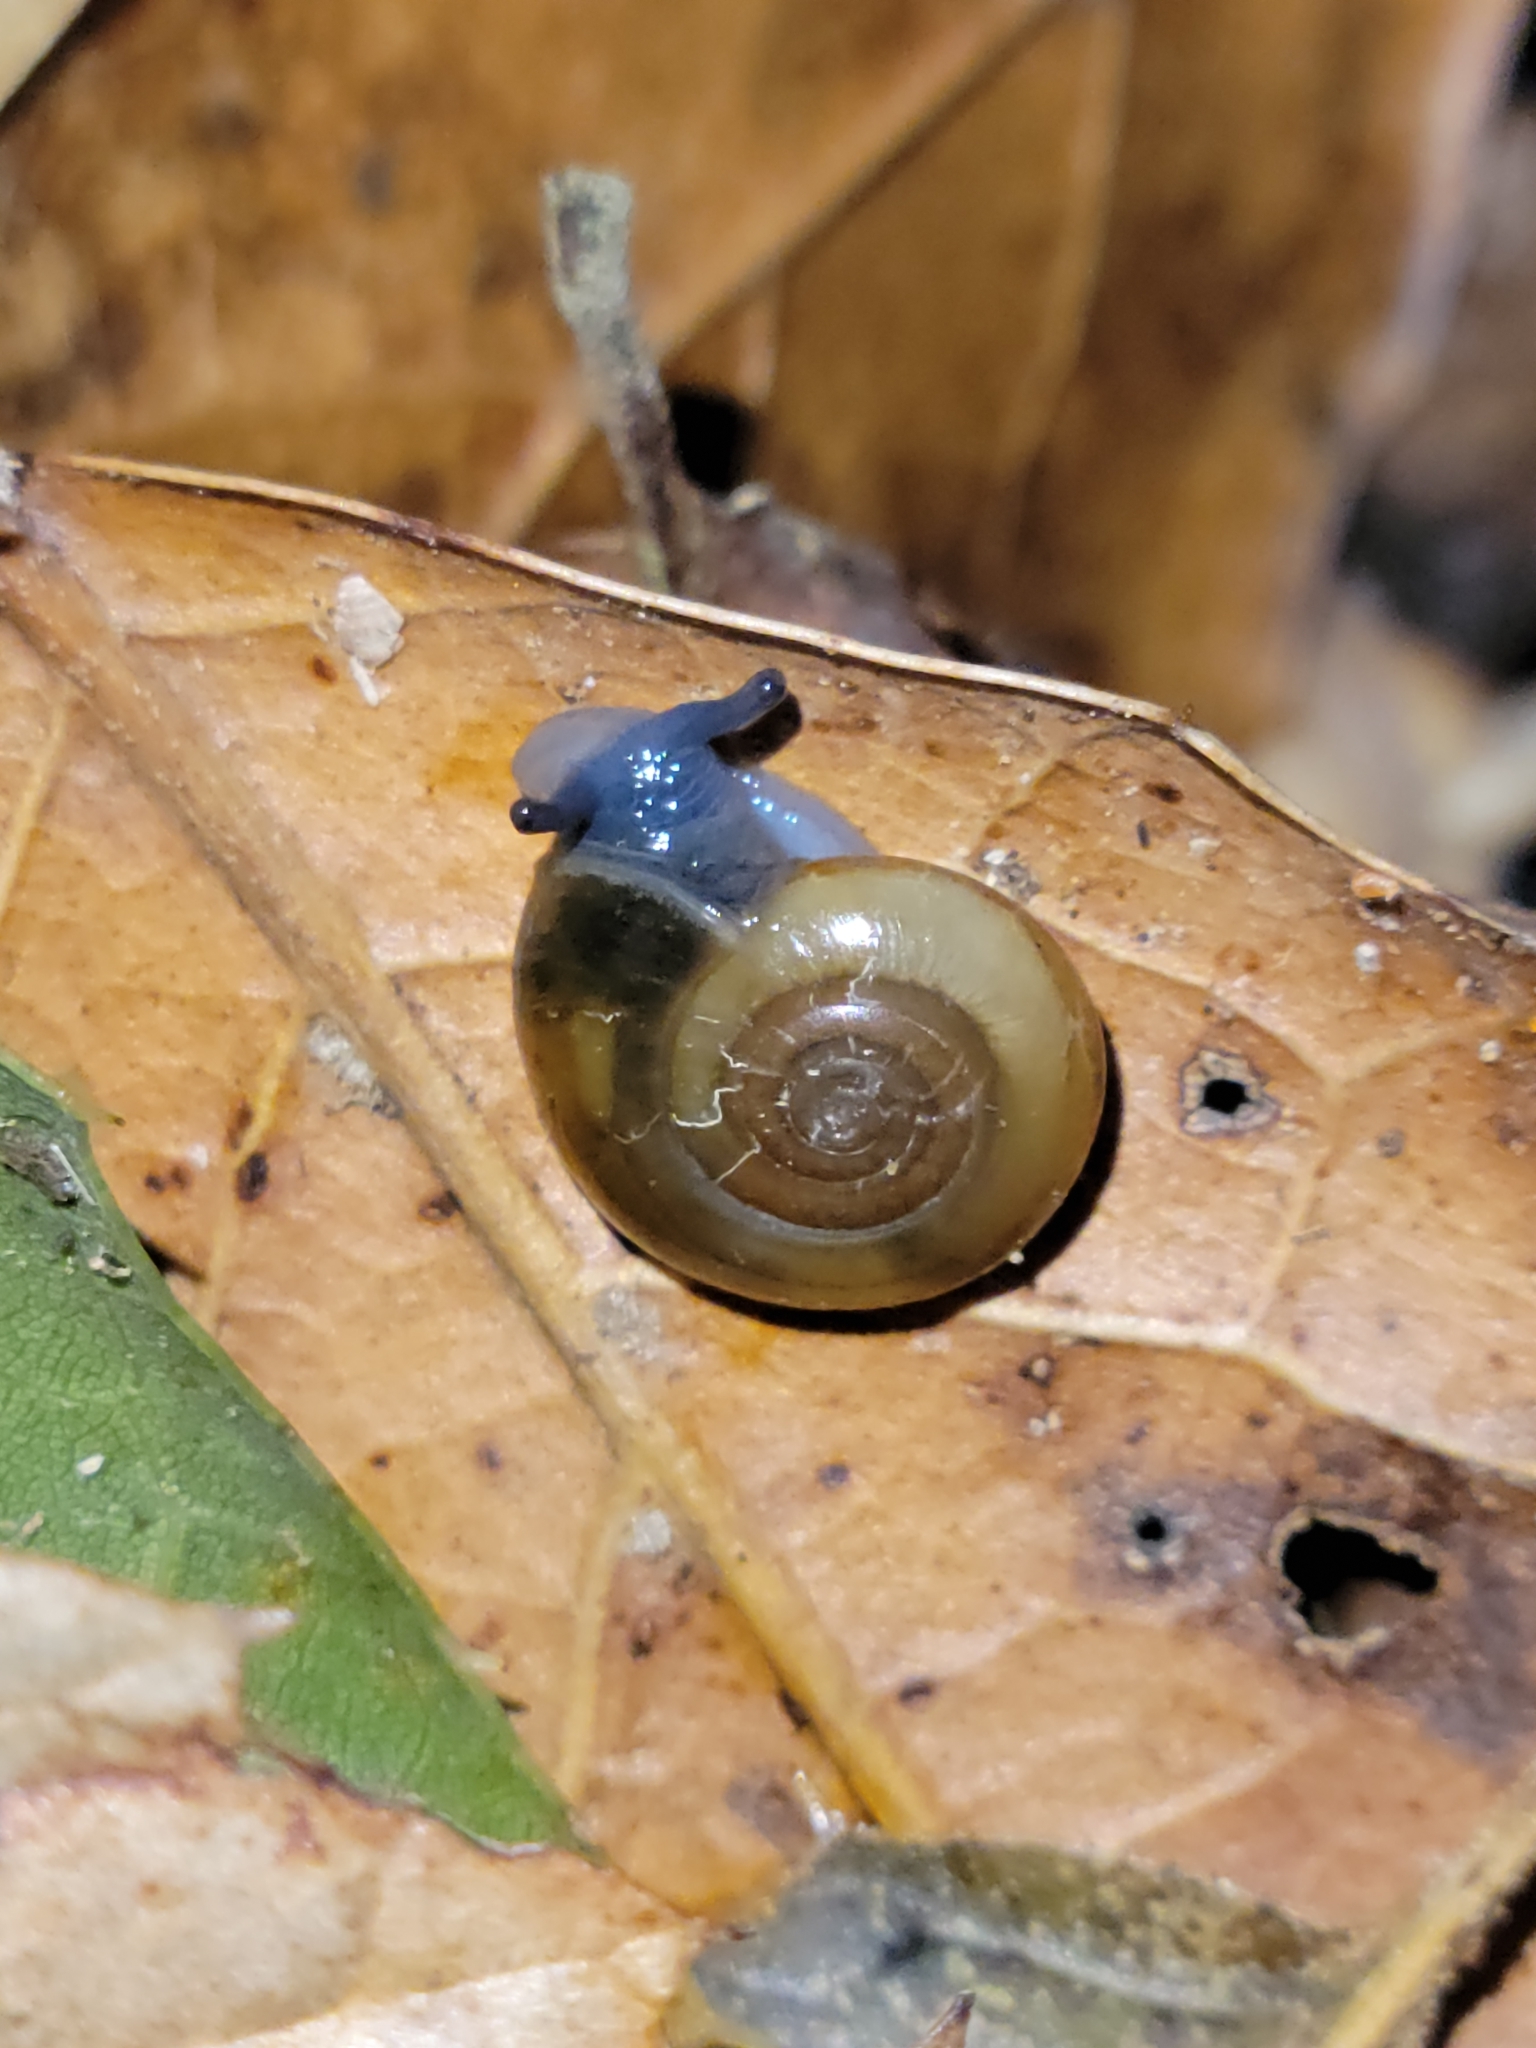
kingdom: Animalia
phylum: Mollusca
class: Gastropoda
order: Stylommatophora
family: Oxychilidae
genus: Oxychilus
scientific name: Oxychilus draparnaudi
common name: Draparnaud's glass snail
